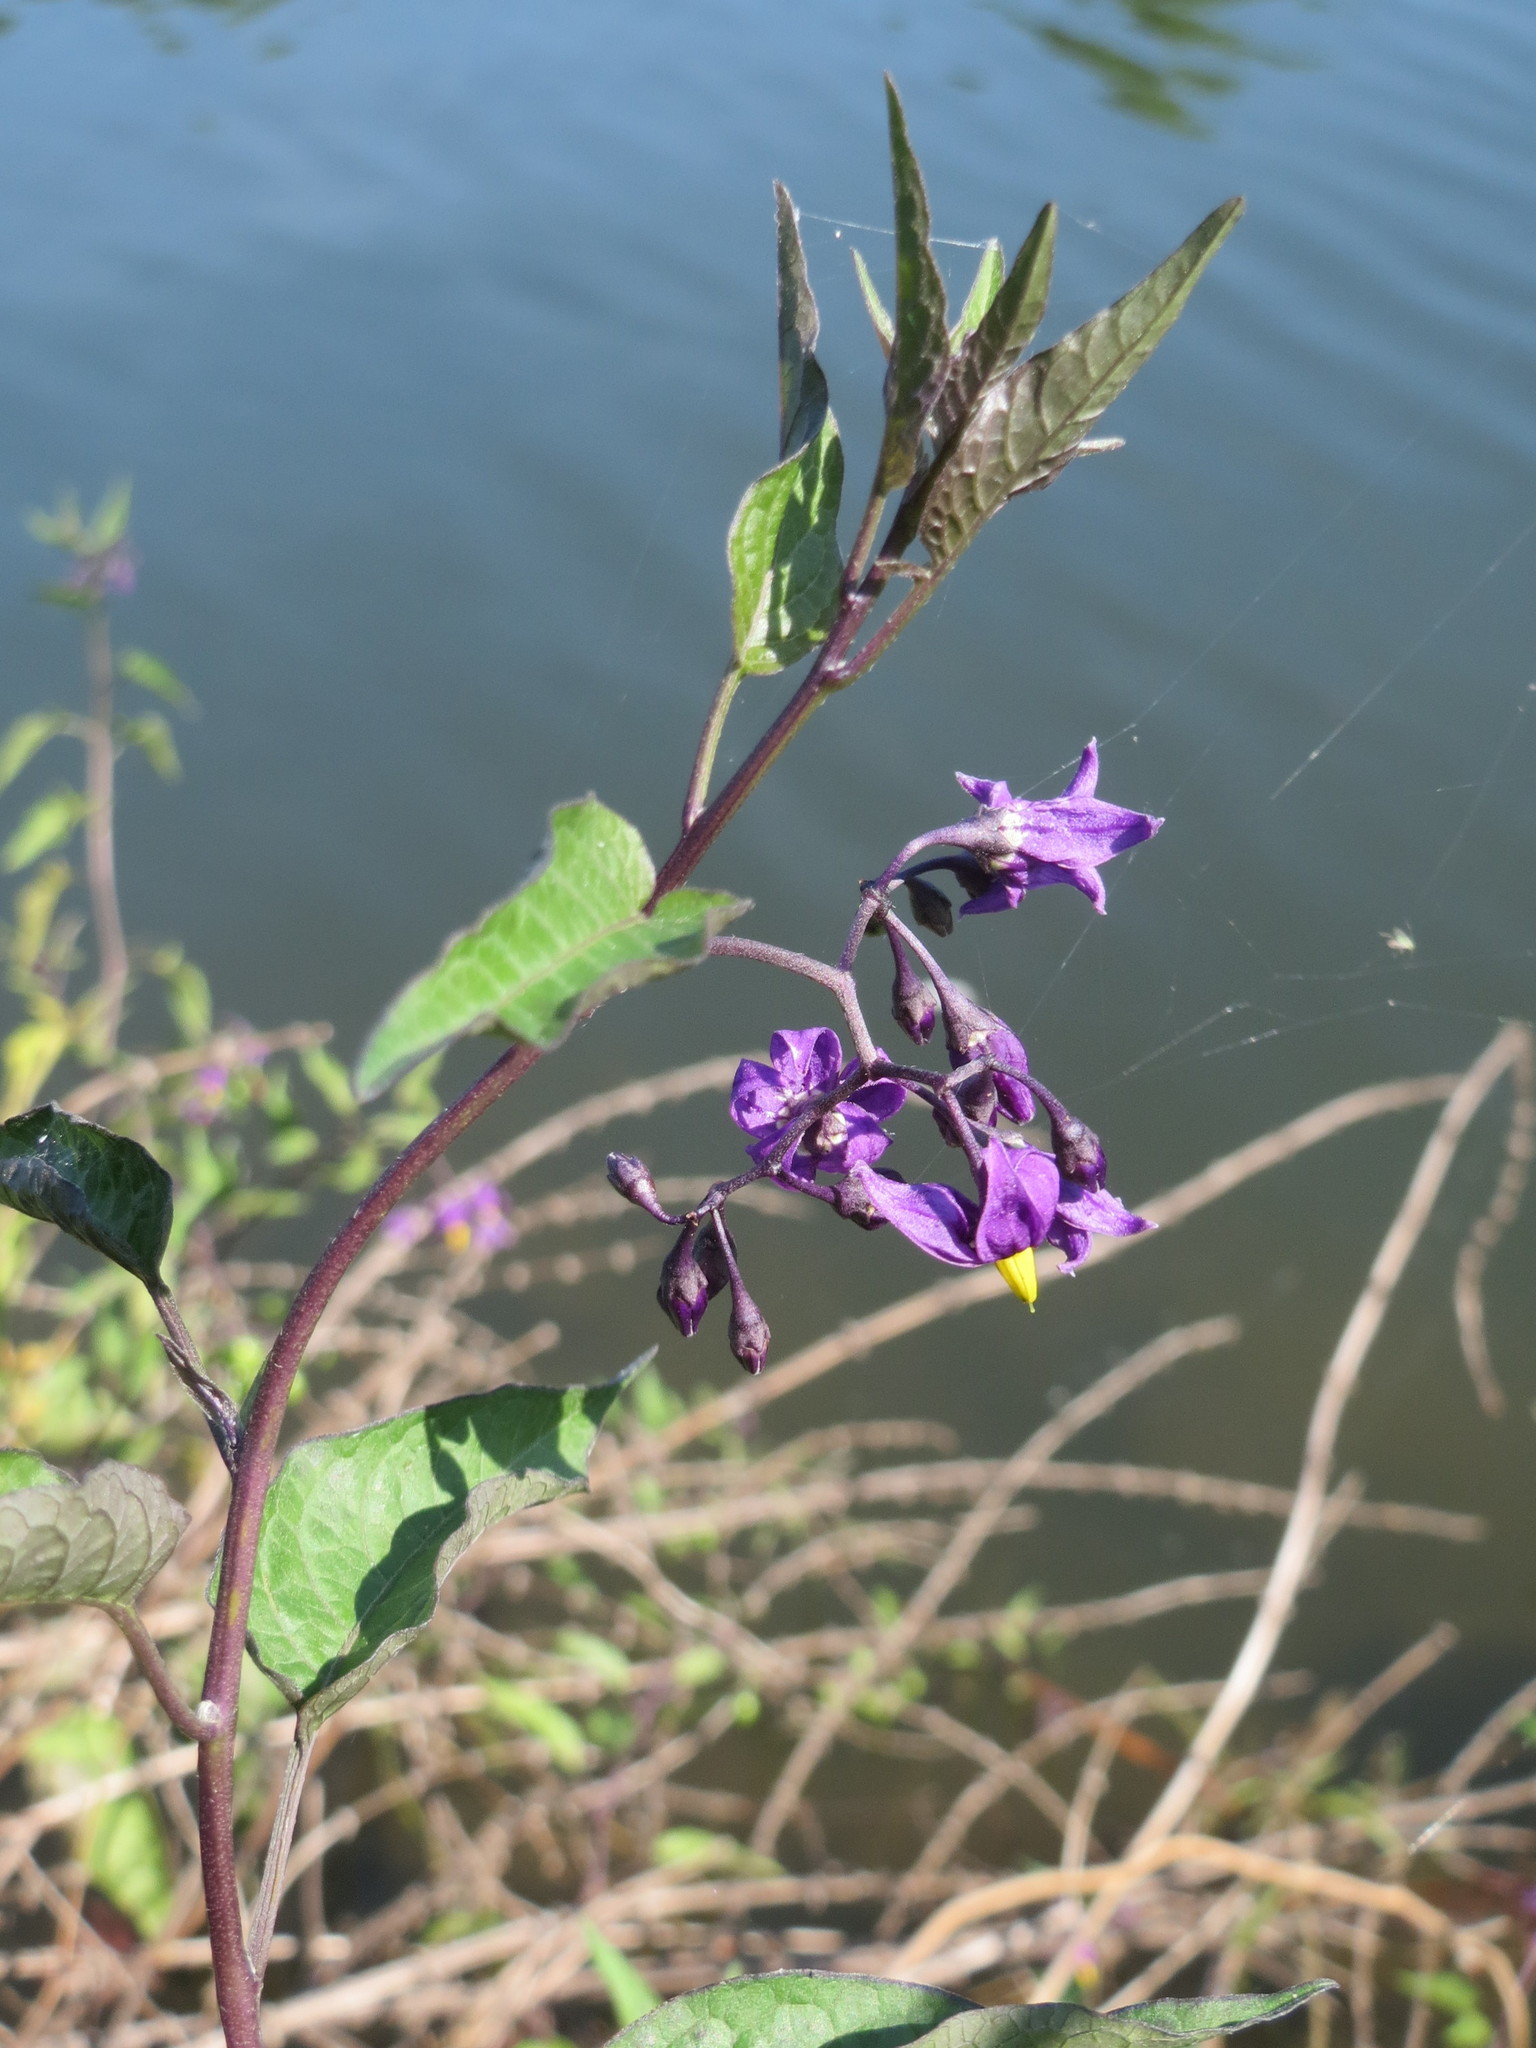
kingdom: Plantae
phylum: Tracheophyta
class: Magnoliopsida
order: Solanales
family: Solanaceae
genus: Solanum
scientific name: Solanum dulcamara
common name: Climbing nightshade
